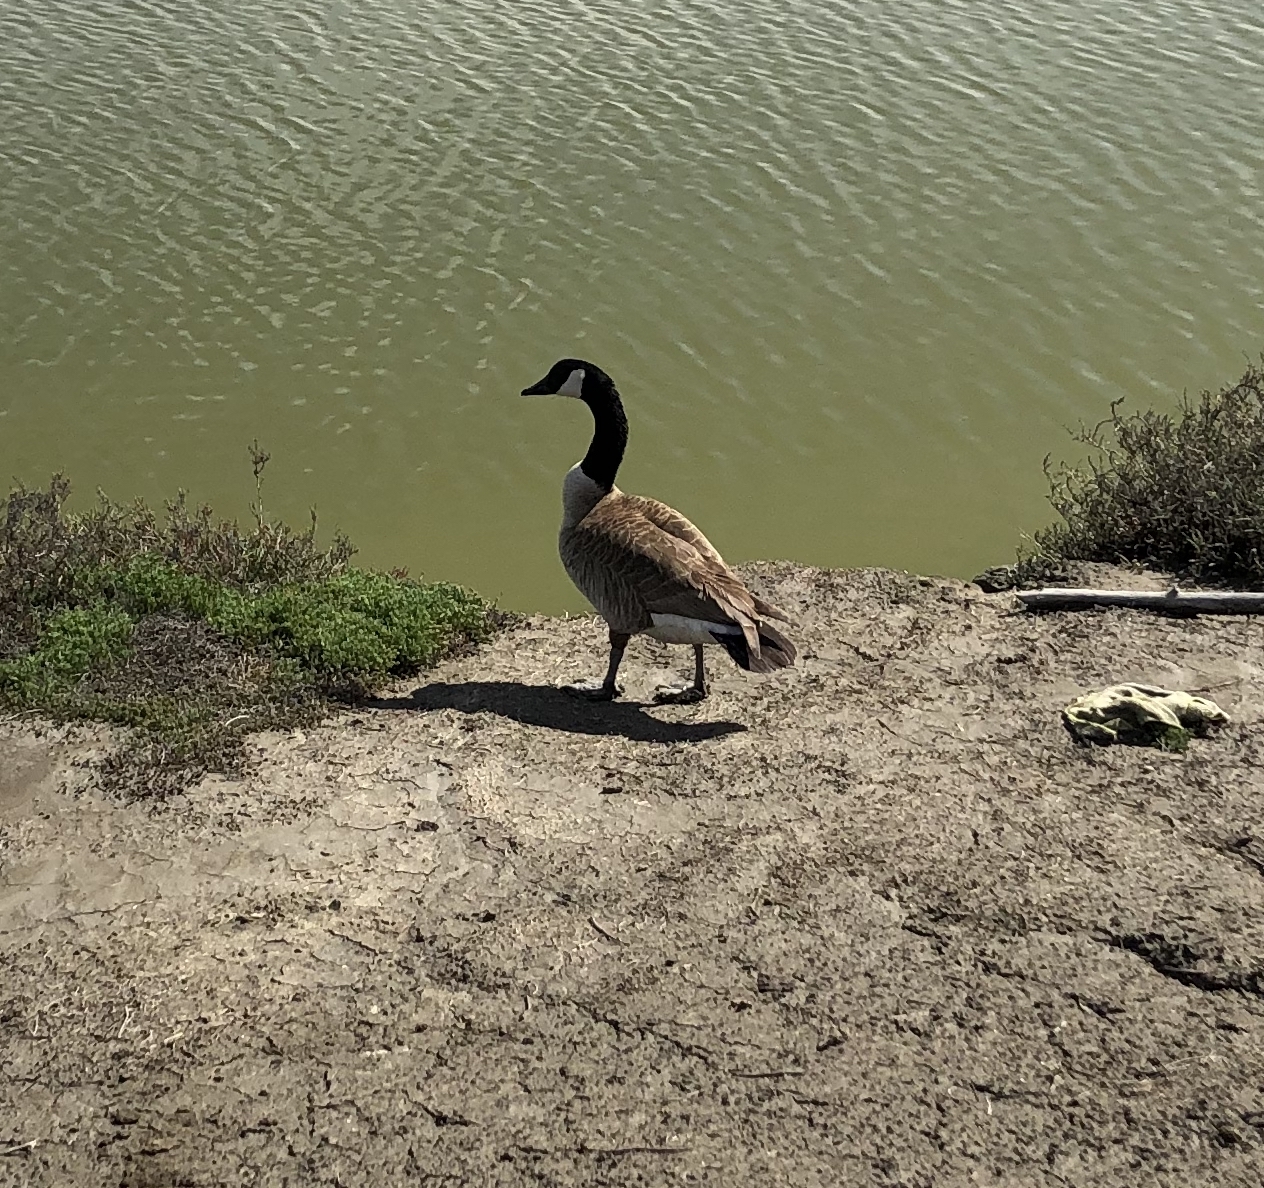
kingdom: Animalia
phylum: Chordata
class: Aves
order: Anseriformes
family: Anatidae
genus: Branta
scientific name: Branta canadensis
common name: Canada goose
